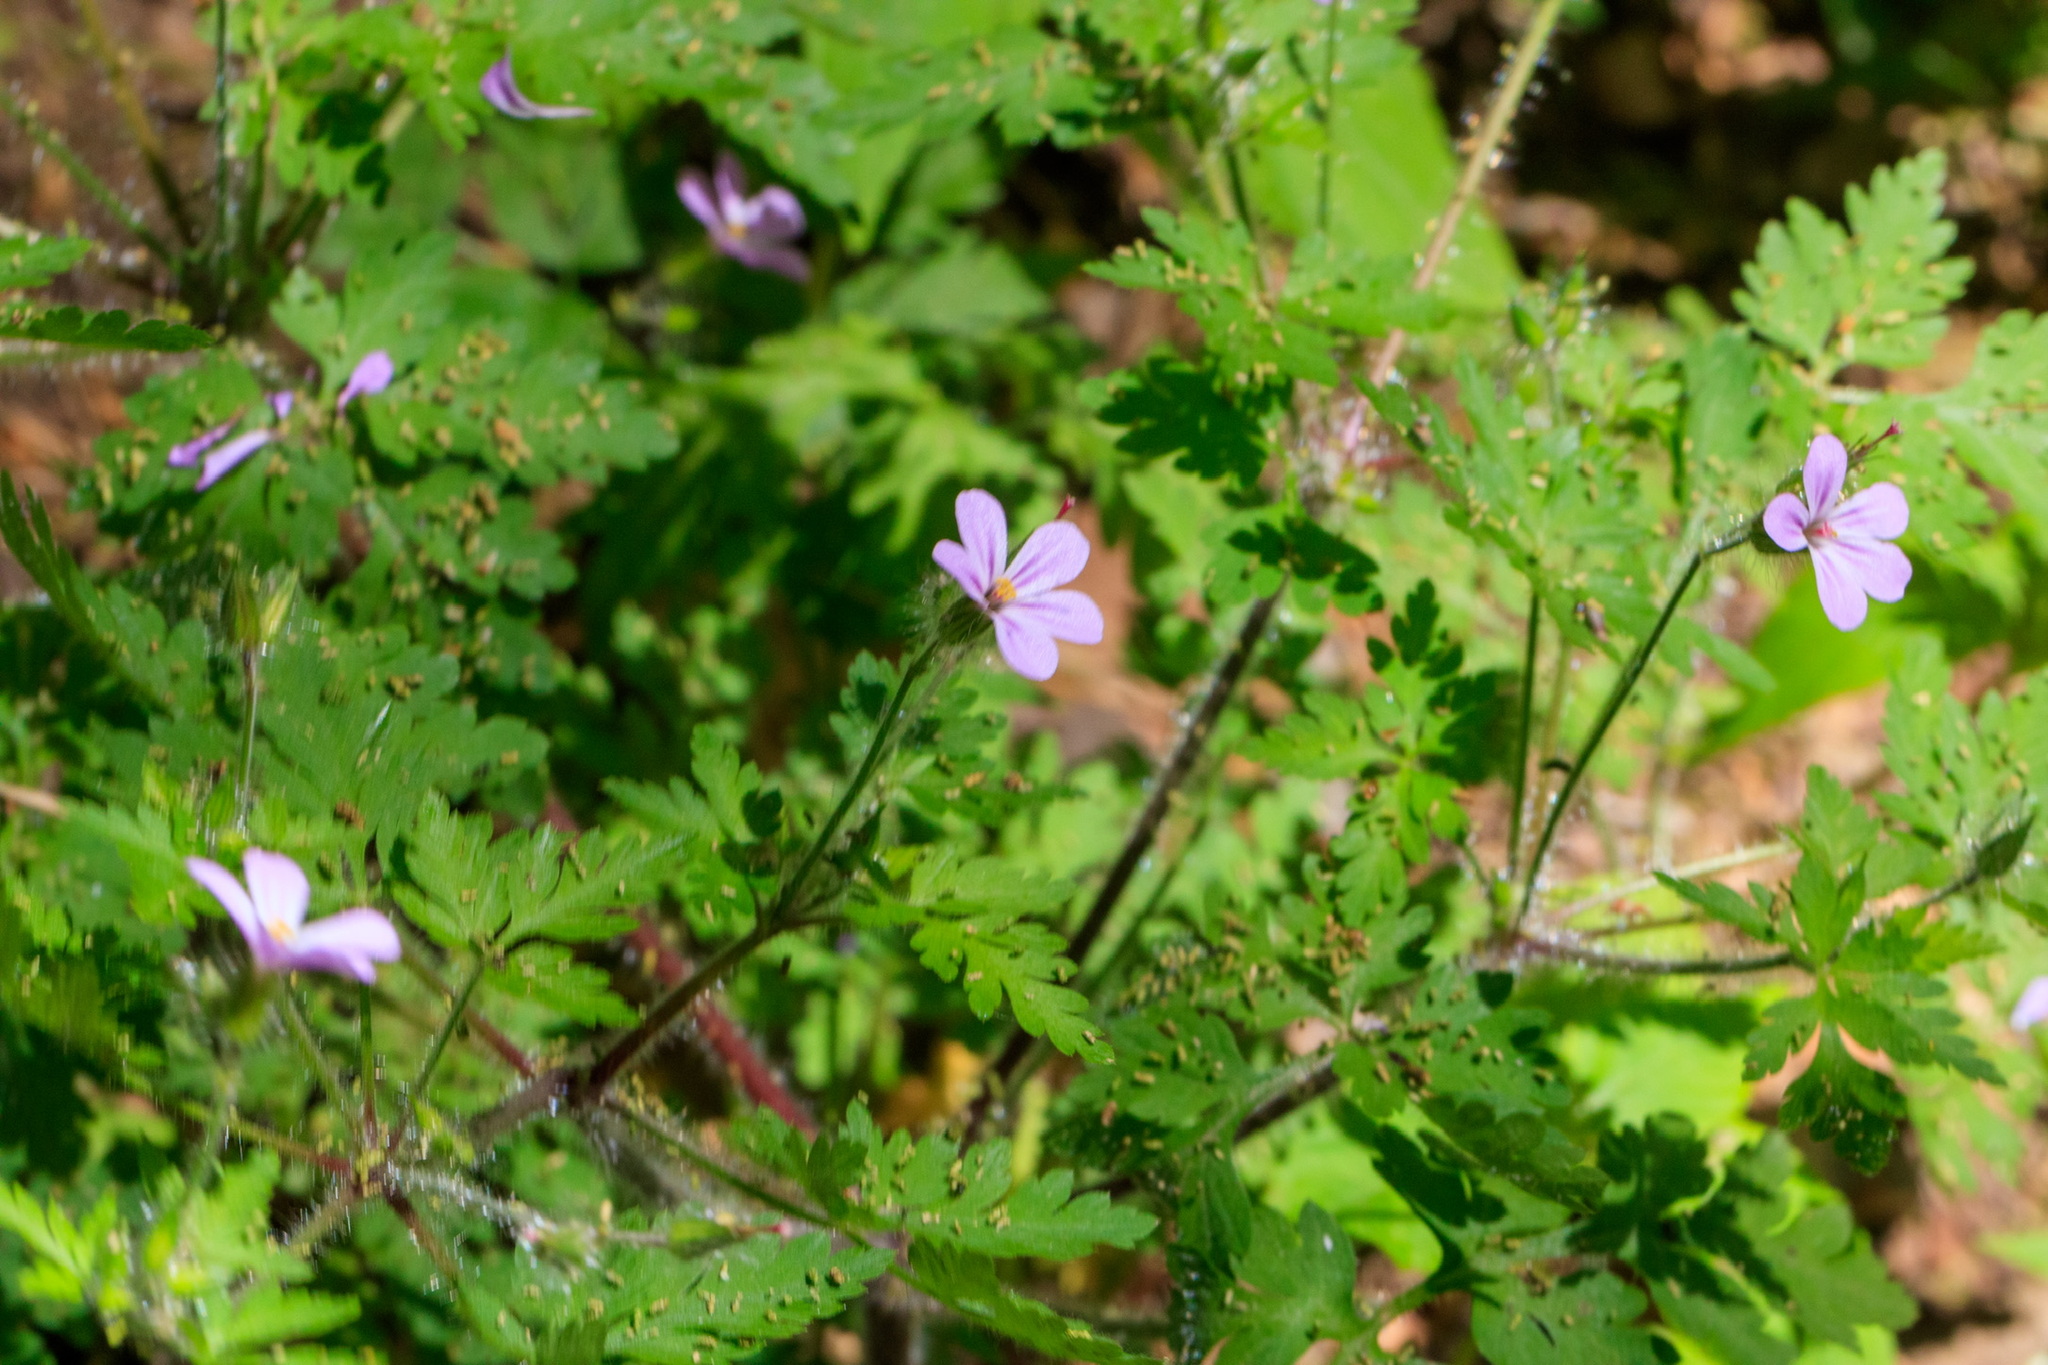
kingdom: Plantae
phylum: Tracheophyta
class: Magnoliopsida
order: Geraniales
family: Geraniaceae
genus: Geranium
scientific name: Geranium robertianum
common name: Herb-robert
